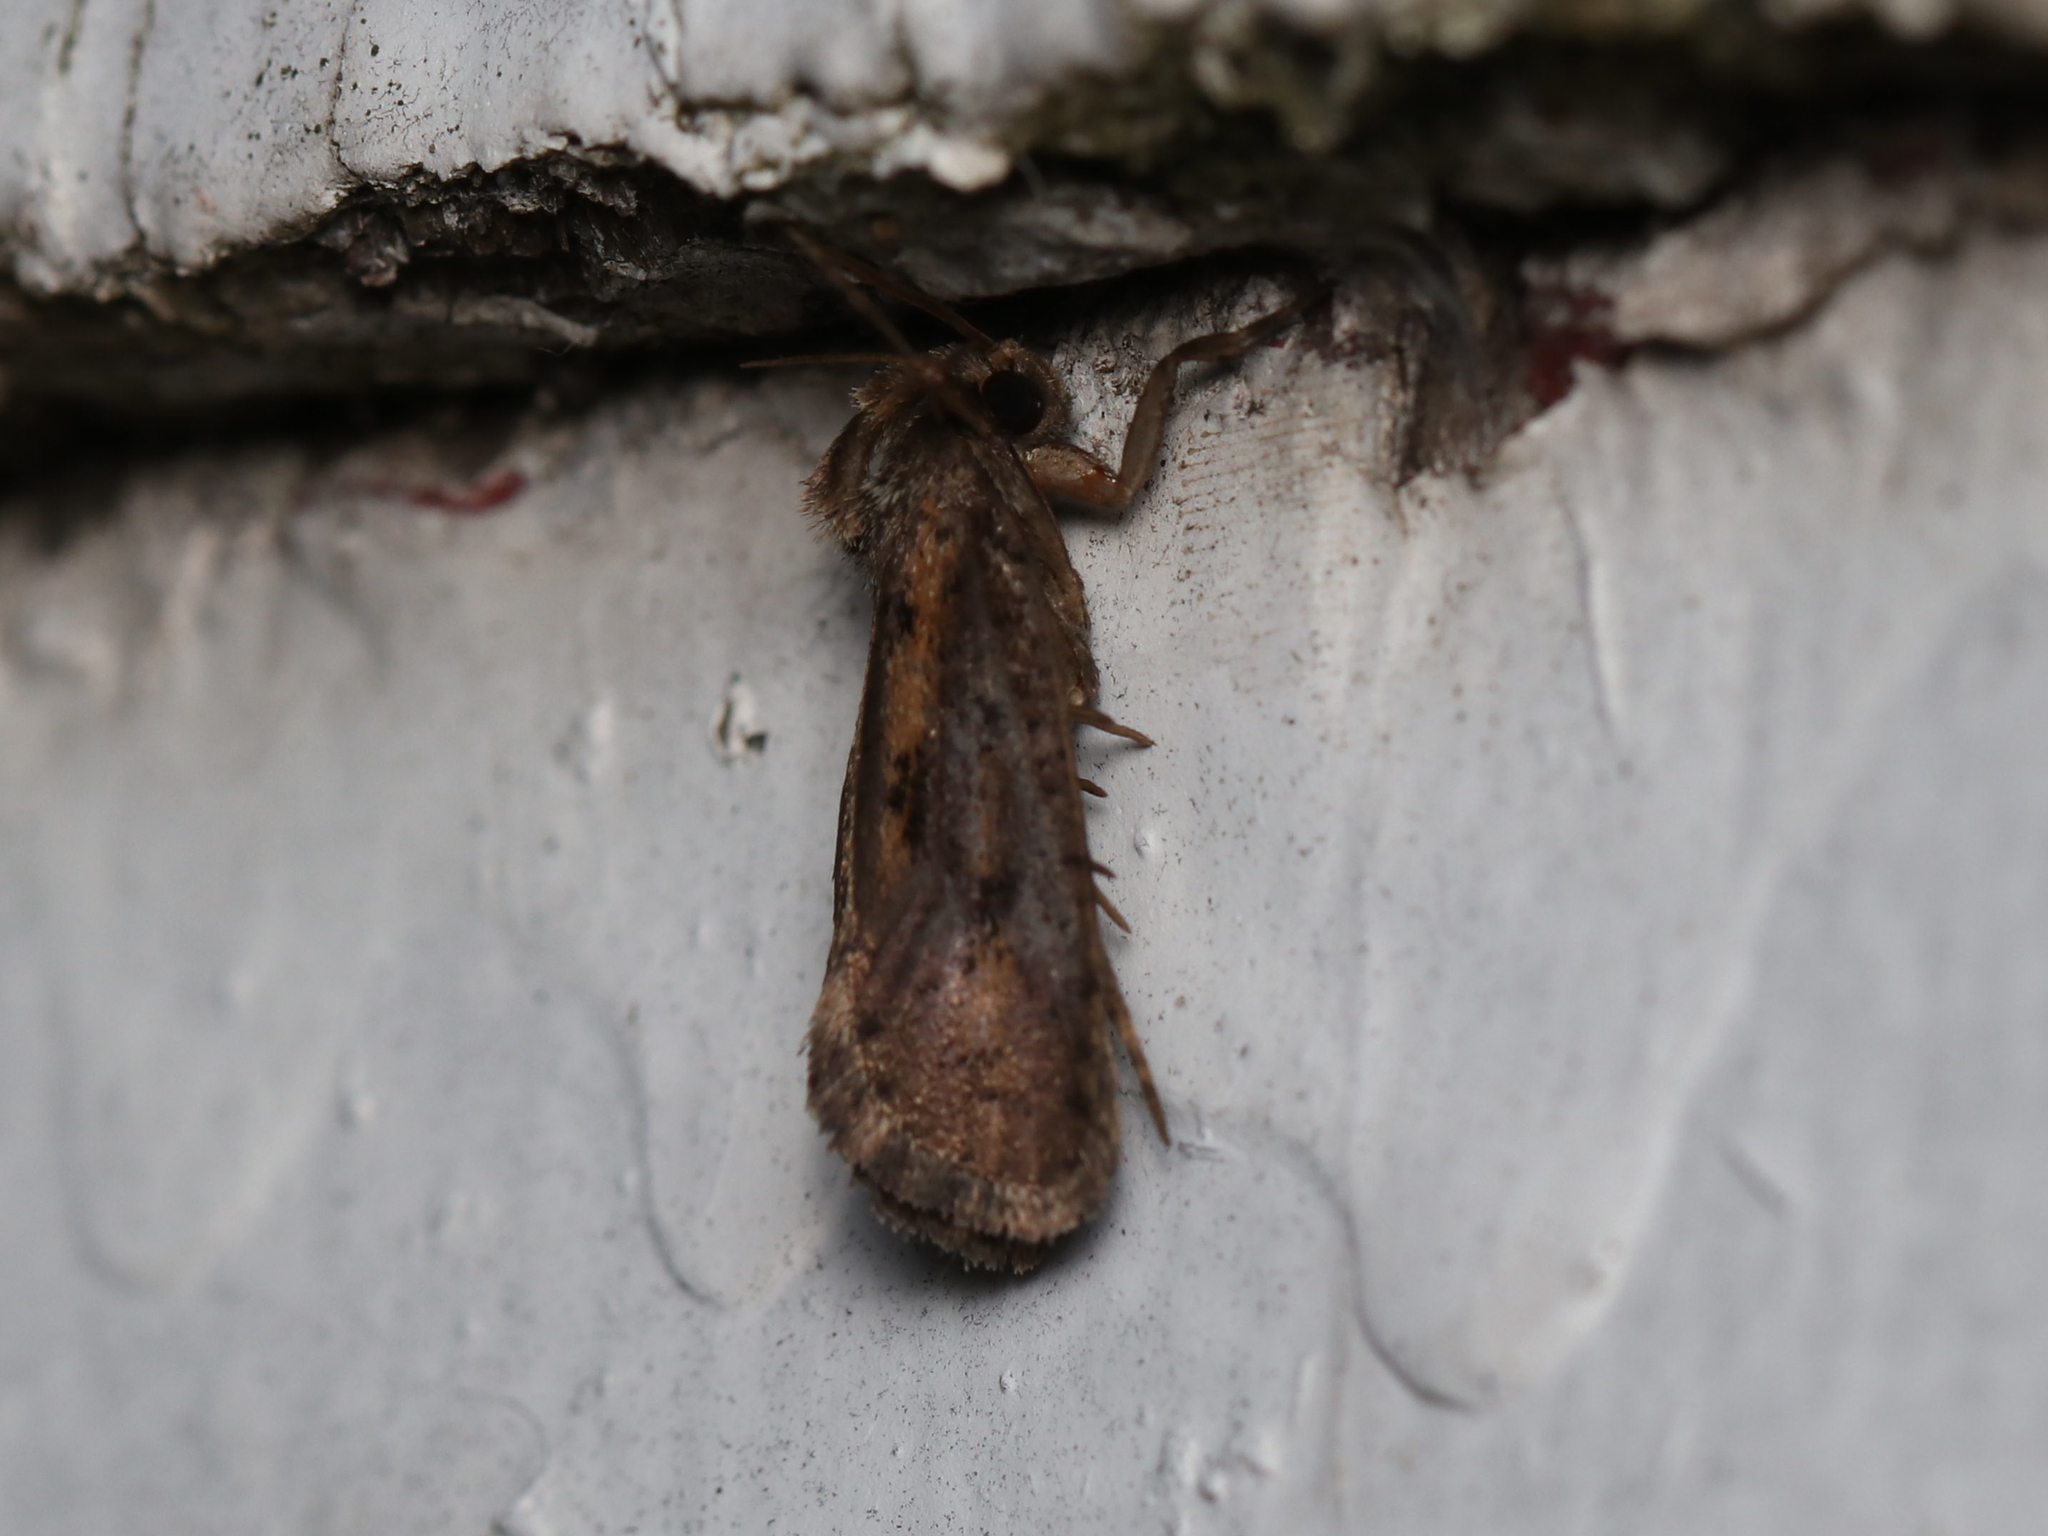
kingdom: Animalia
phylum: Arthropoda
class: Insecta
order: Lepidoptera
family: Tineidae
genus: Acrolophus
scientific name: Acrolophus popeanella
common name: Clemens' grass tubeworm moth
